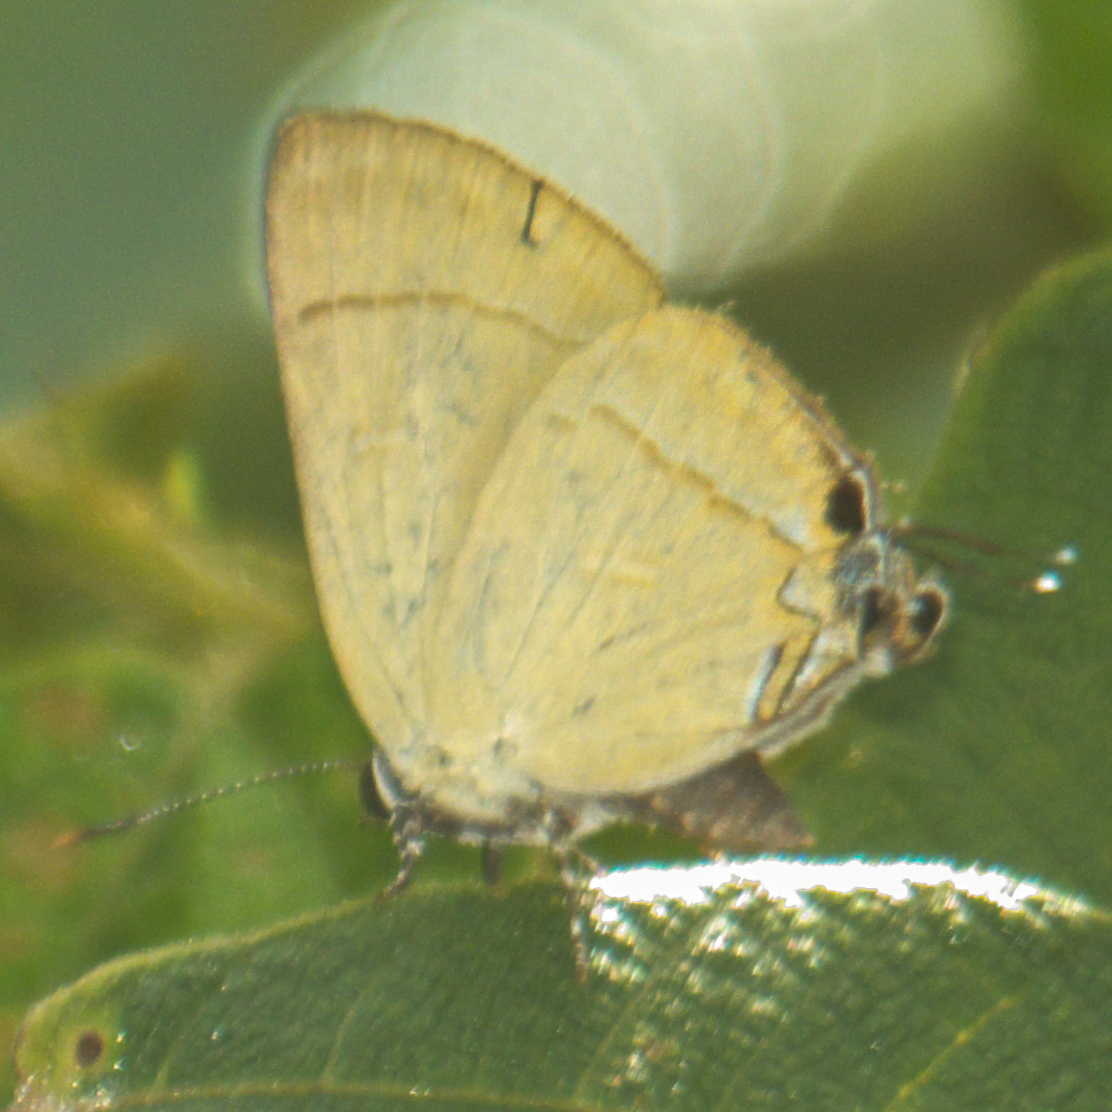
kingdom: Animalia
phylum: Arthropoda
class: Insecta
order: Lepidoptera
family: Lycaenidae
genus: Rapala
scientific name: Rapala suffusa
